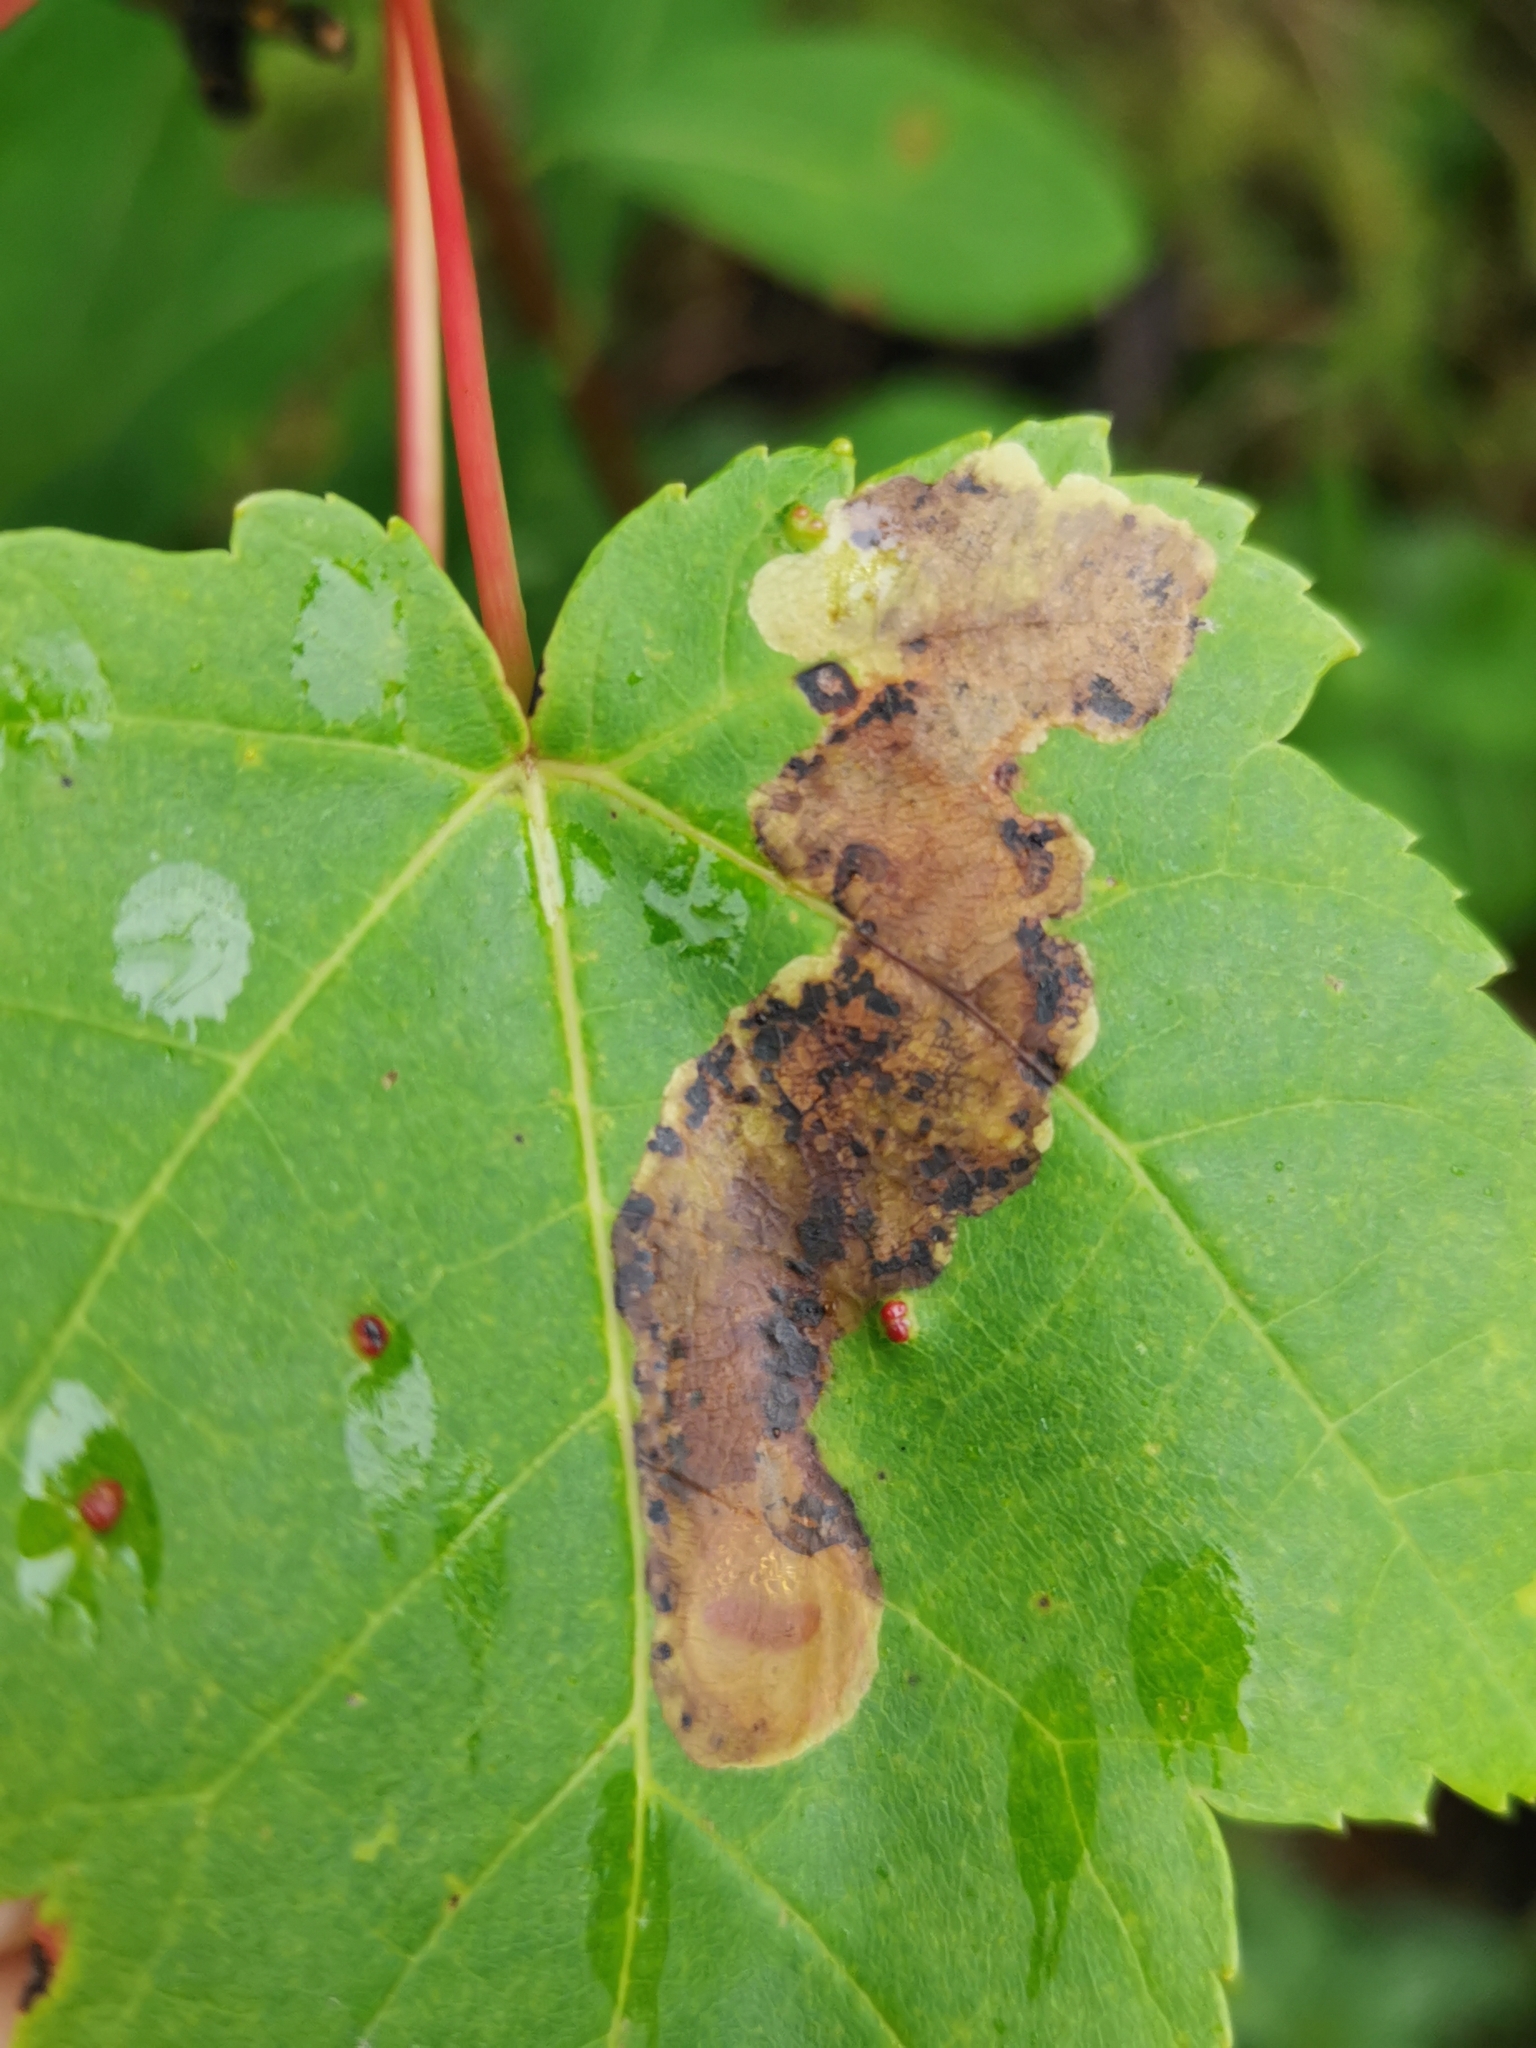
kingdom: Animalia
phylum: Arthropoda
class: Insecta
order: Lepidoptera
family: Gracillariidae
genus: Cameraria
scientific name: Cameraria aceriella
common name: Maple leafblotch miner
